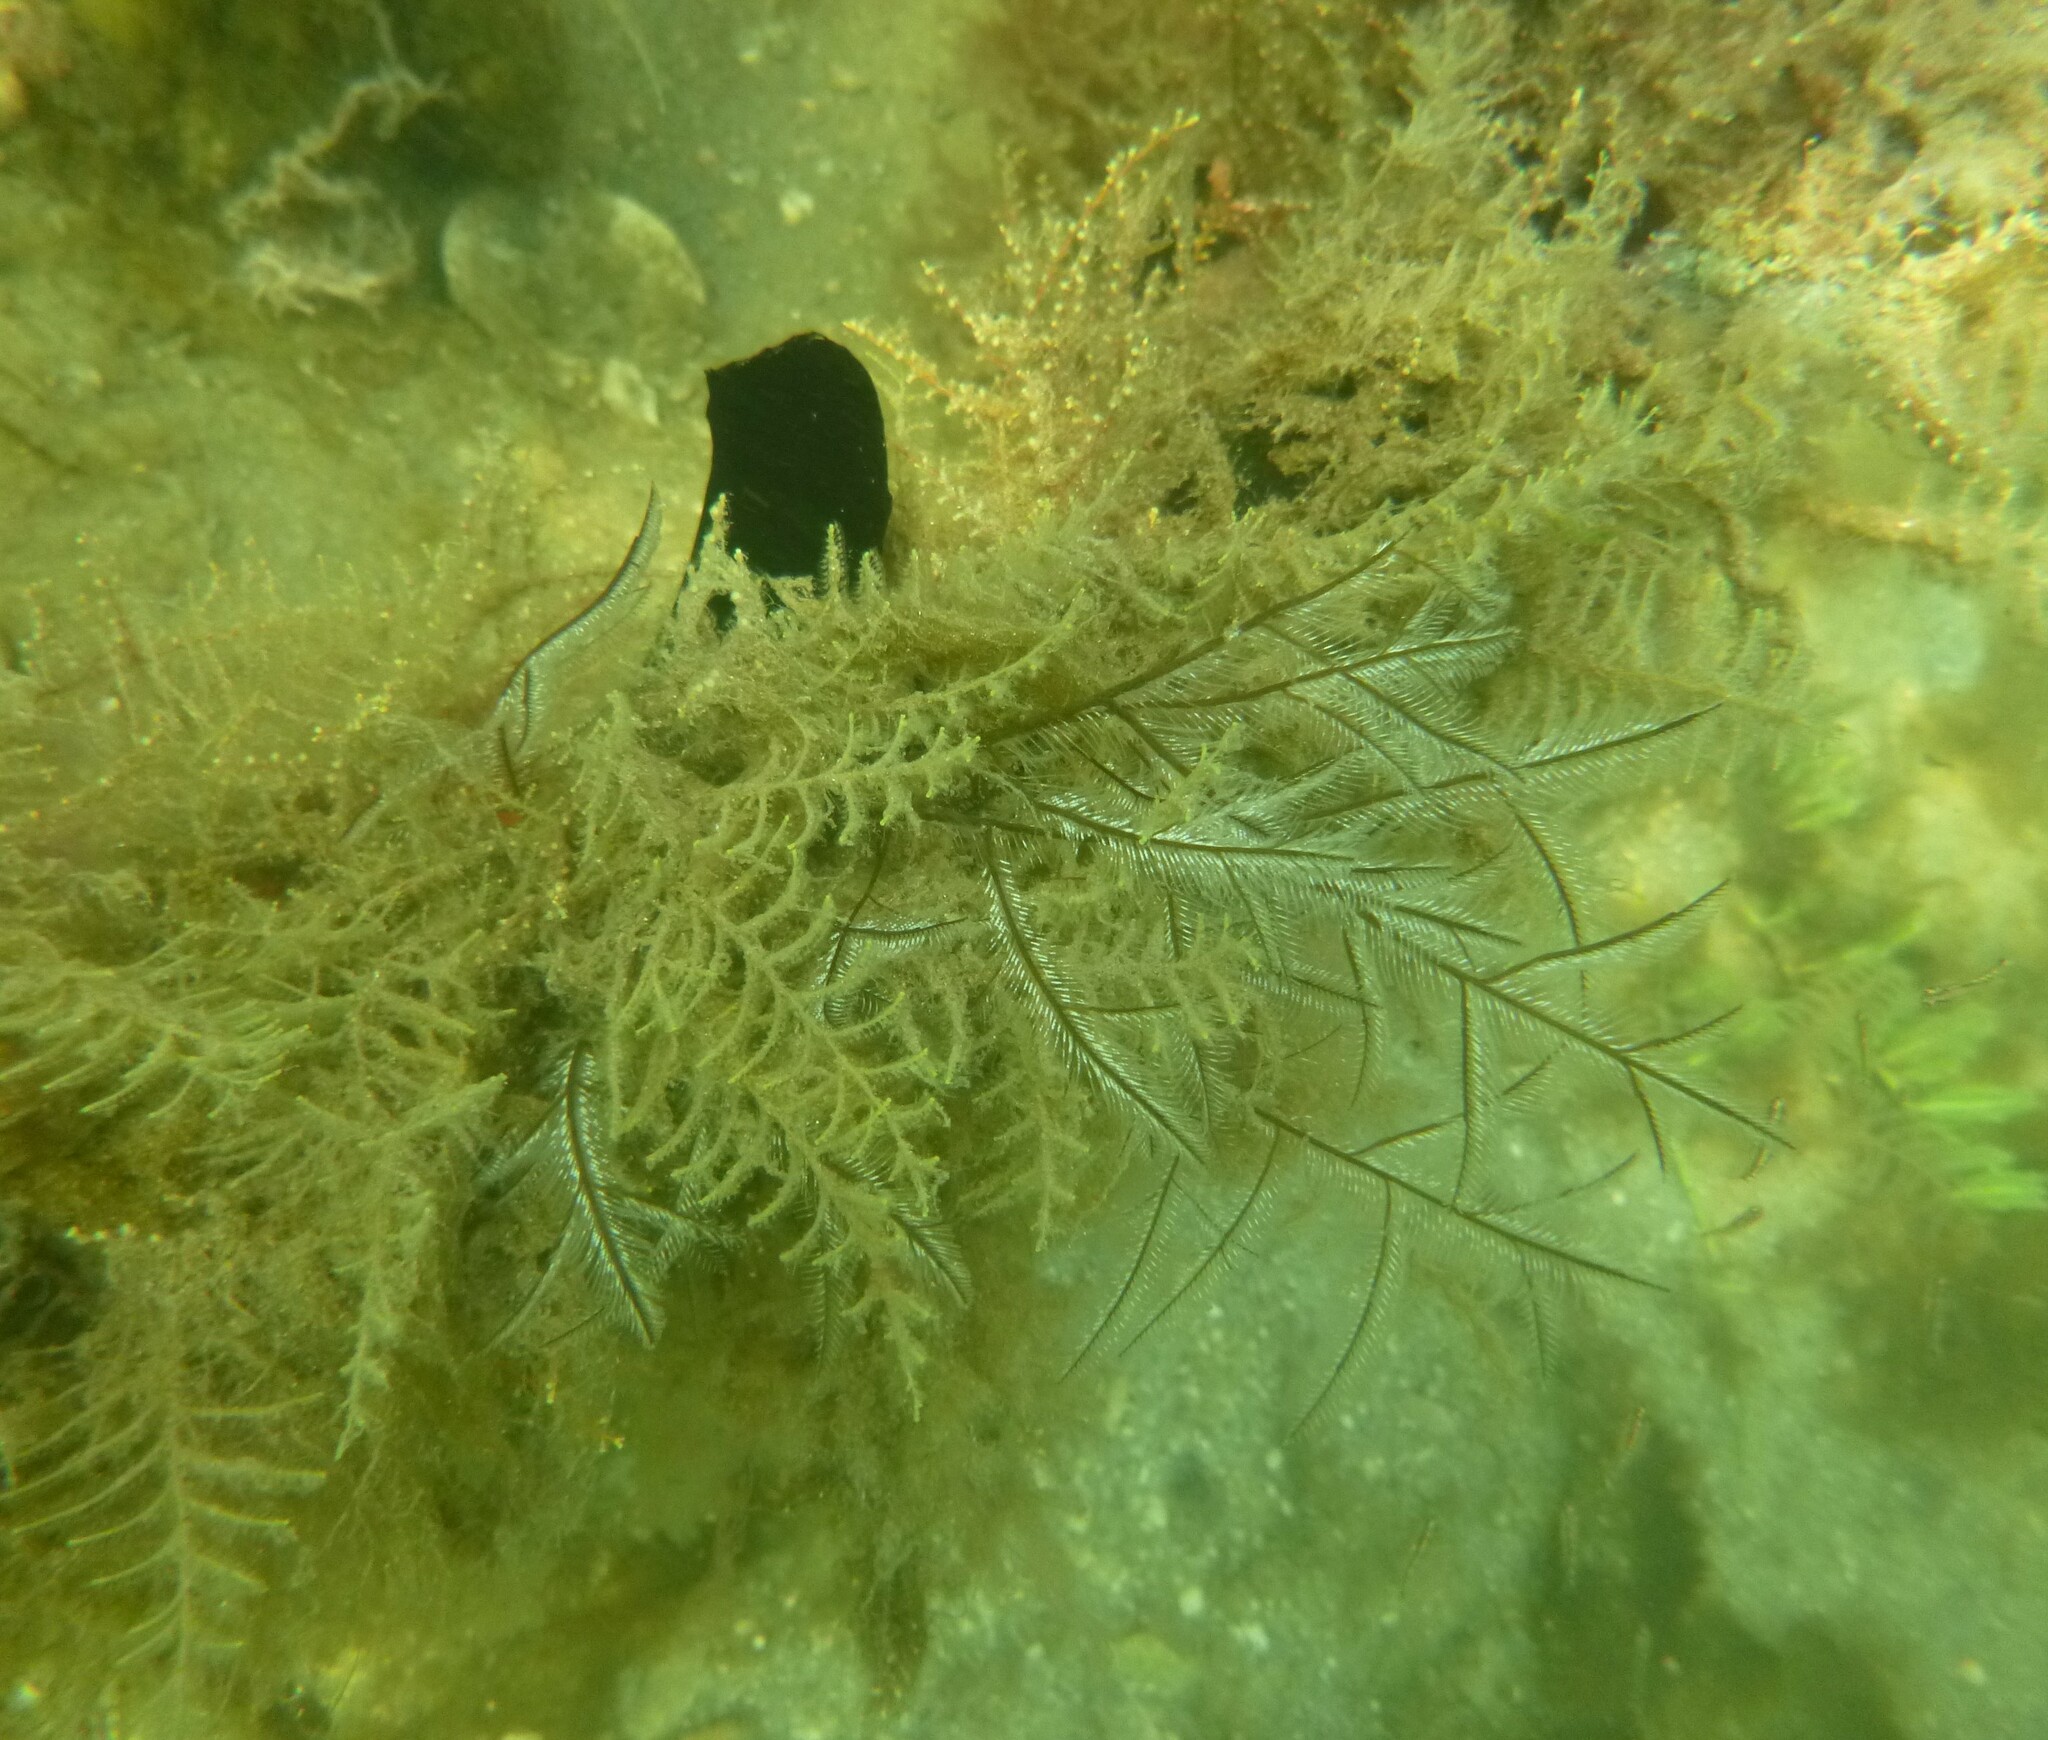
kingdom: Animalia
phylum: Cnidaria
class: Hydrozoa
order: Leptothecata
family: Aglaopheniidae
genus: Macrorhynchia
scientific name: Macrorhynchia philippina
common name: Stinging hydroid
